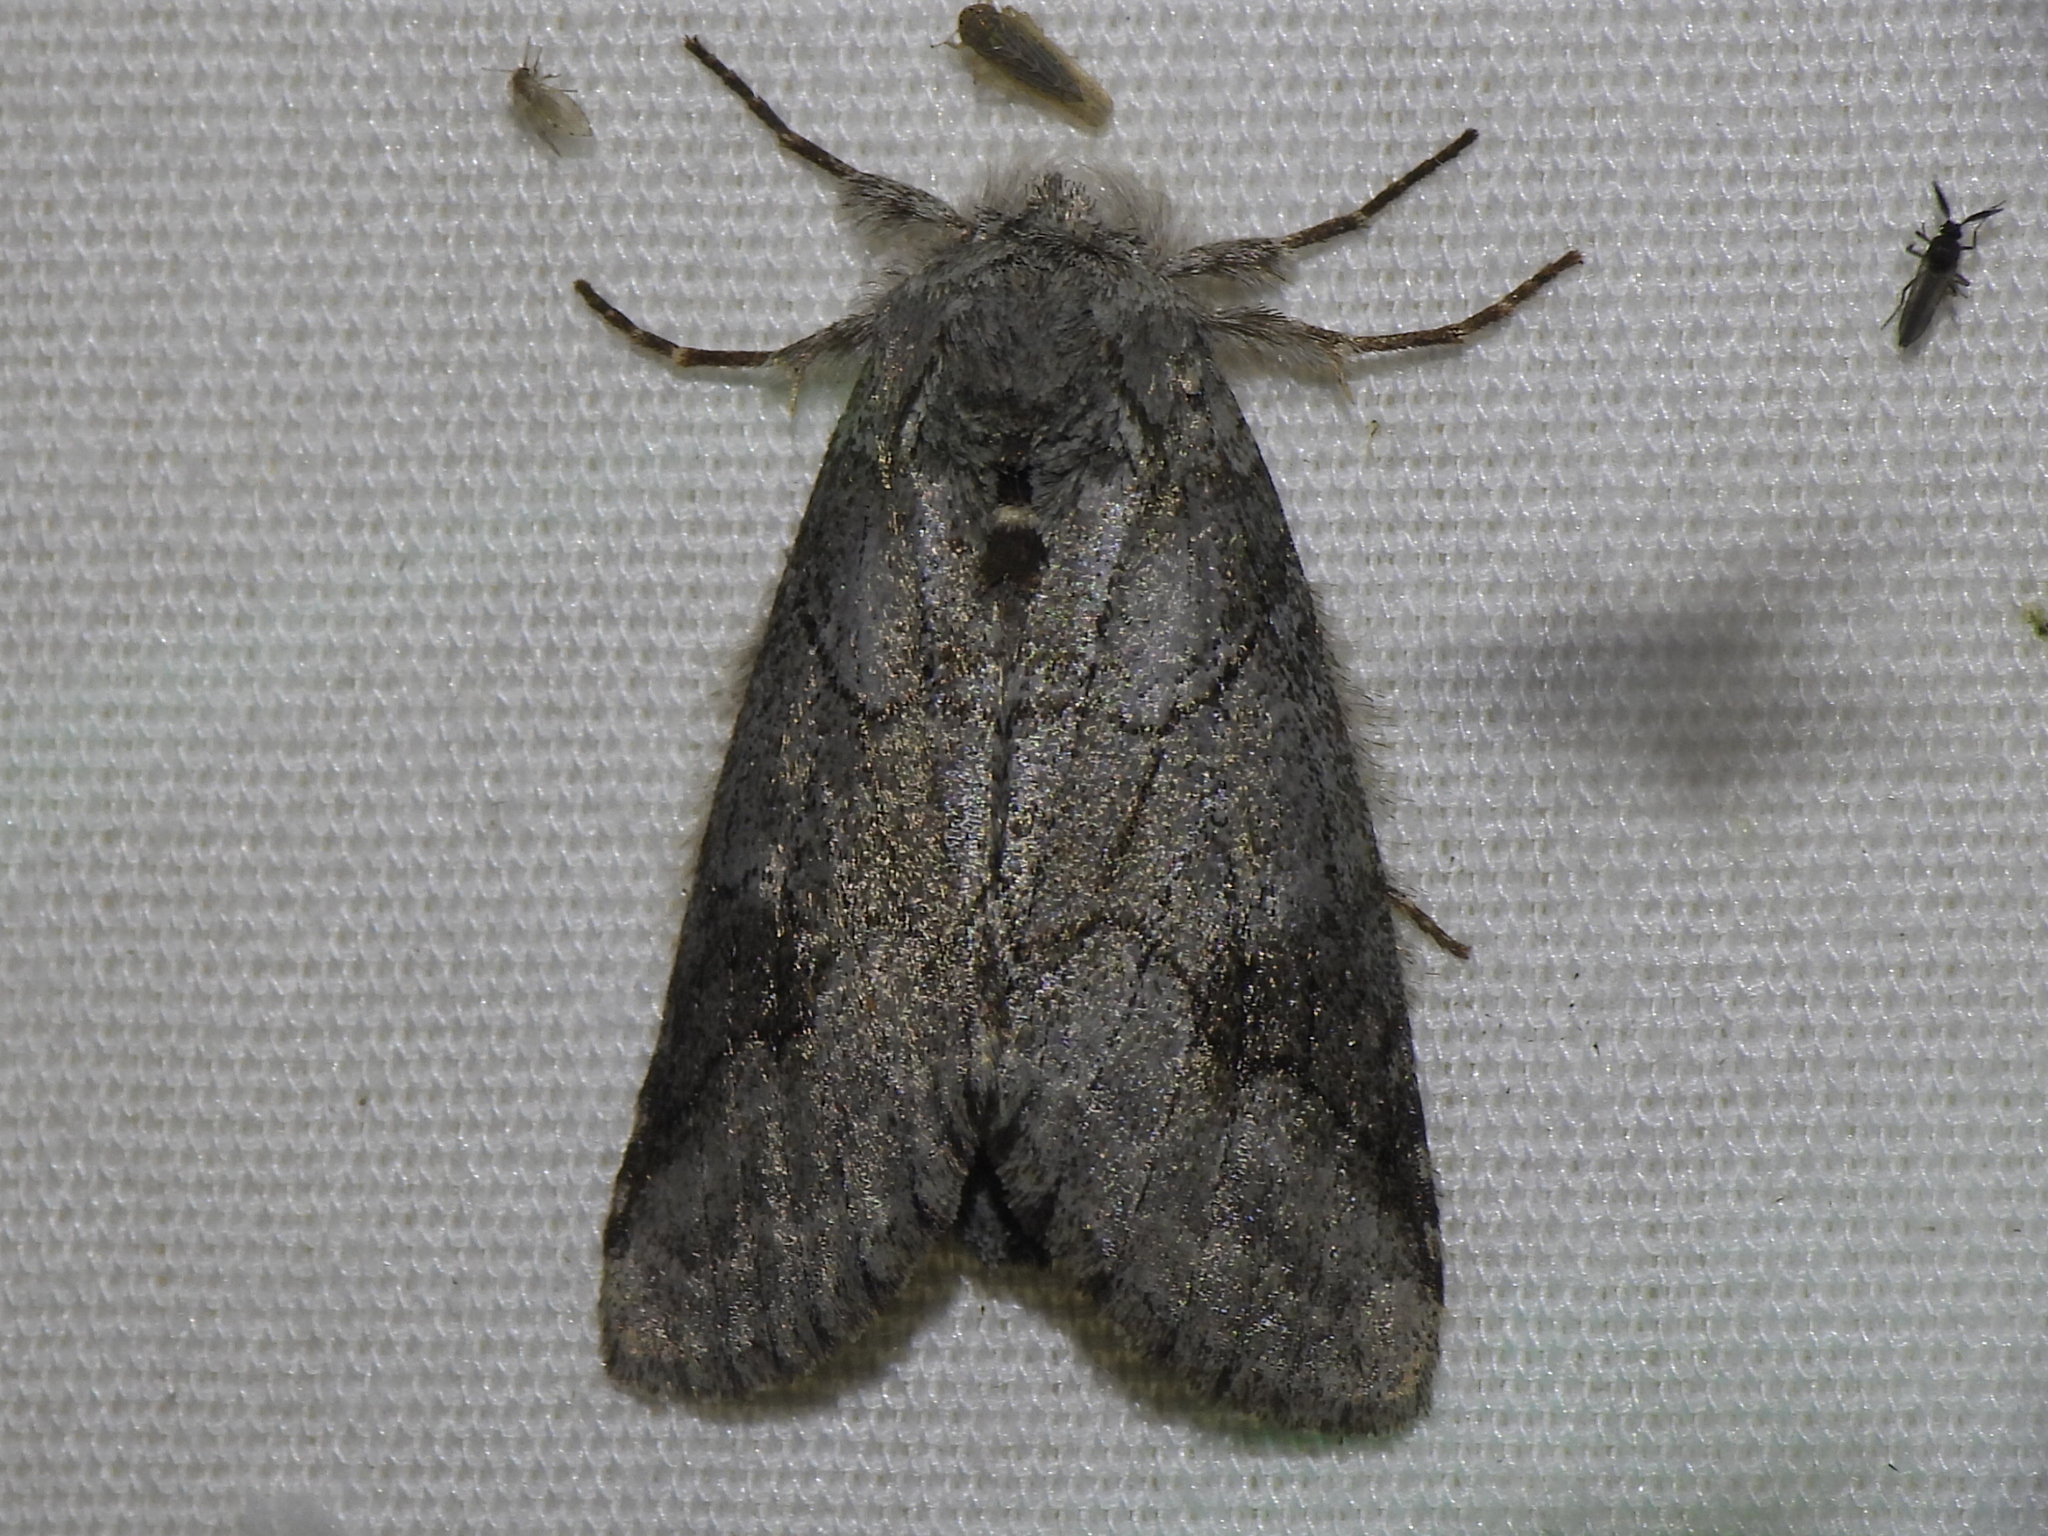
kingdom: Animalia
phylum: Arthropoda
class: Insecta
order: Lepidoptera
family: Notodontidae
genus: Lochmaeus
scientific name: Lochmaeus bilineata
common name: Double-lined prominent
